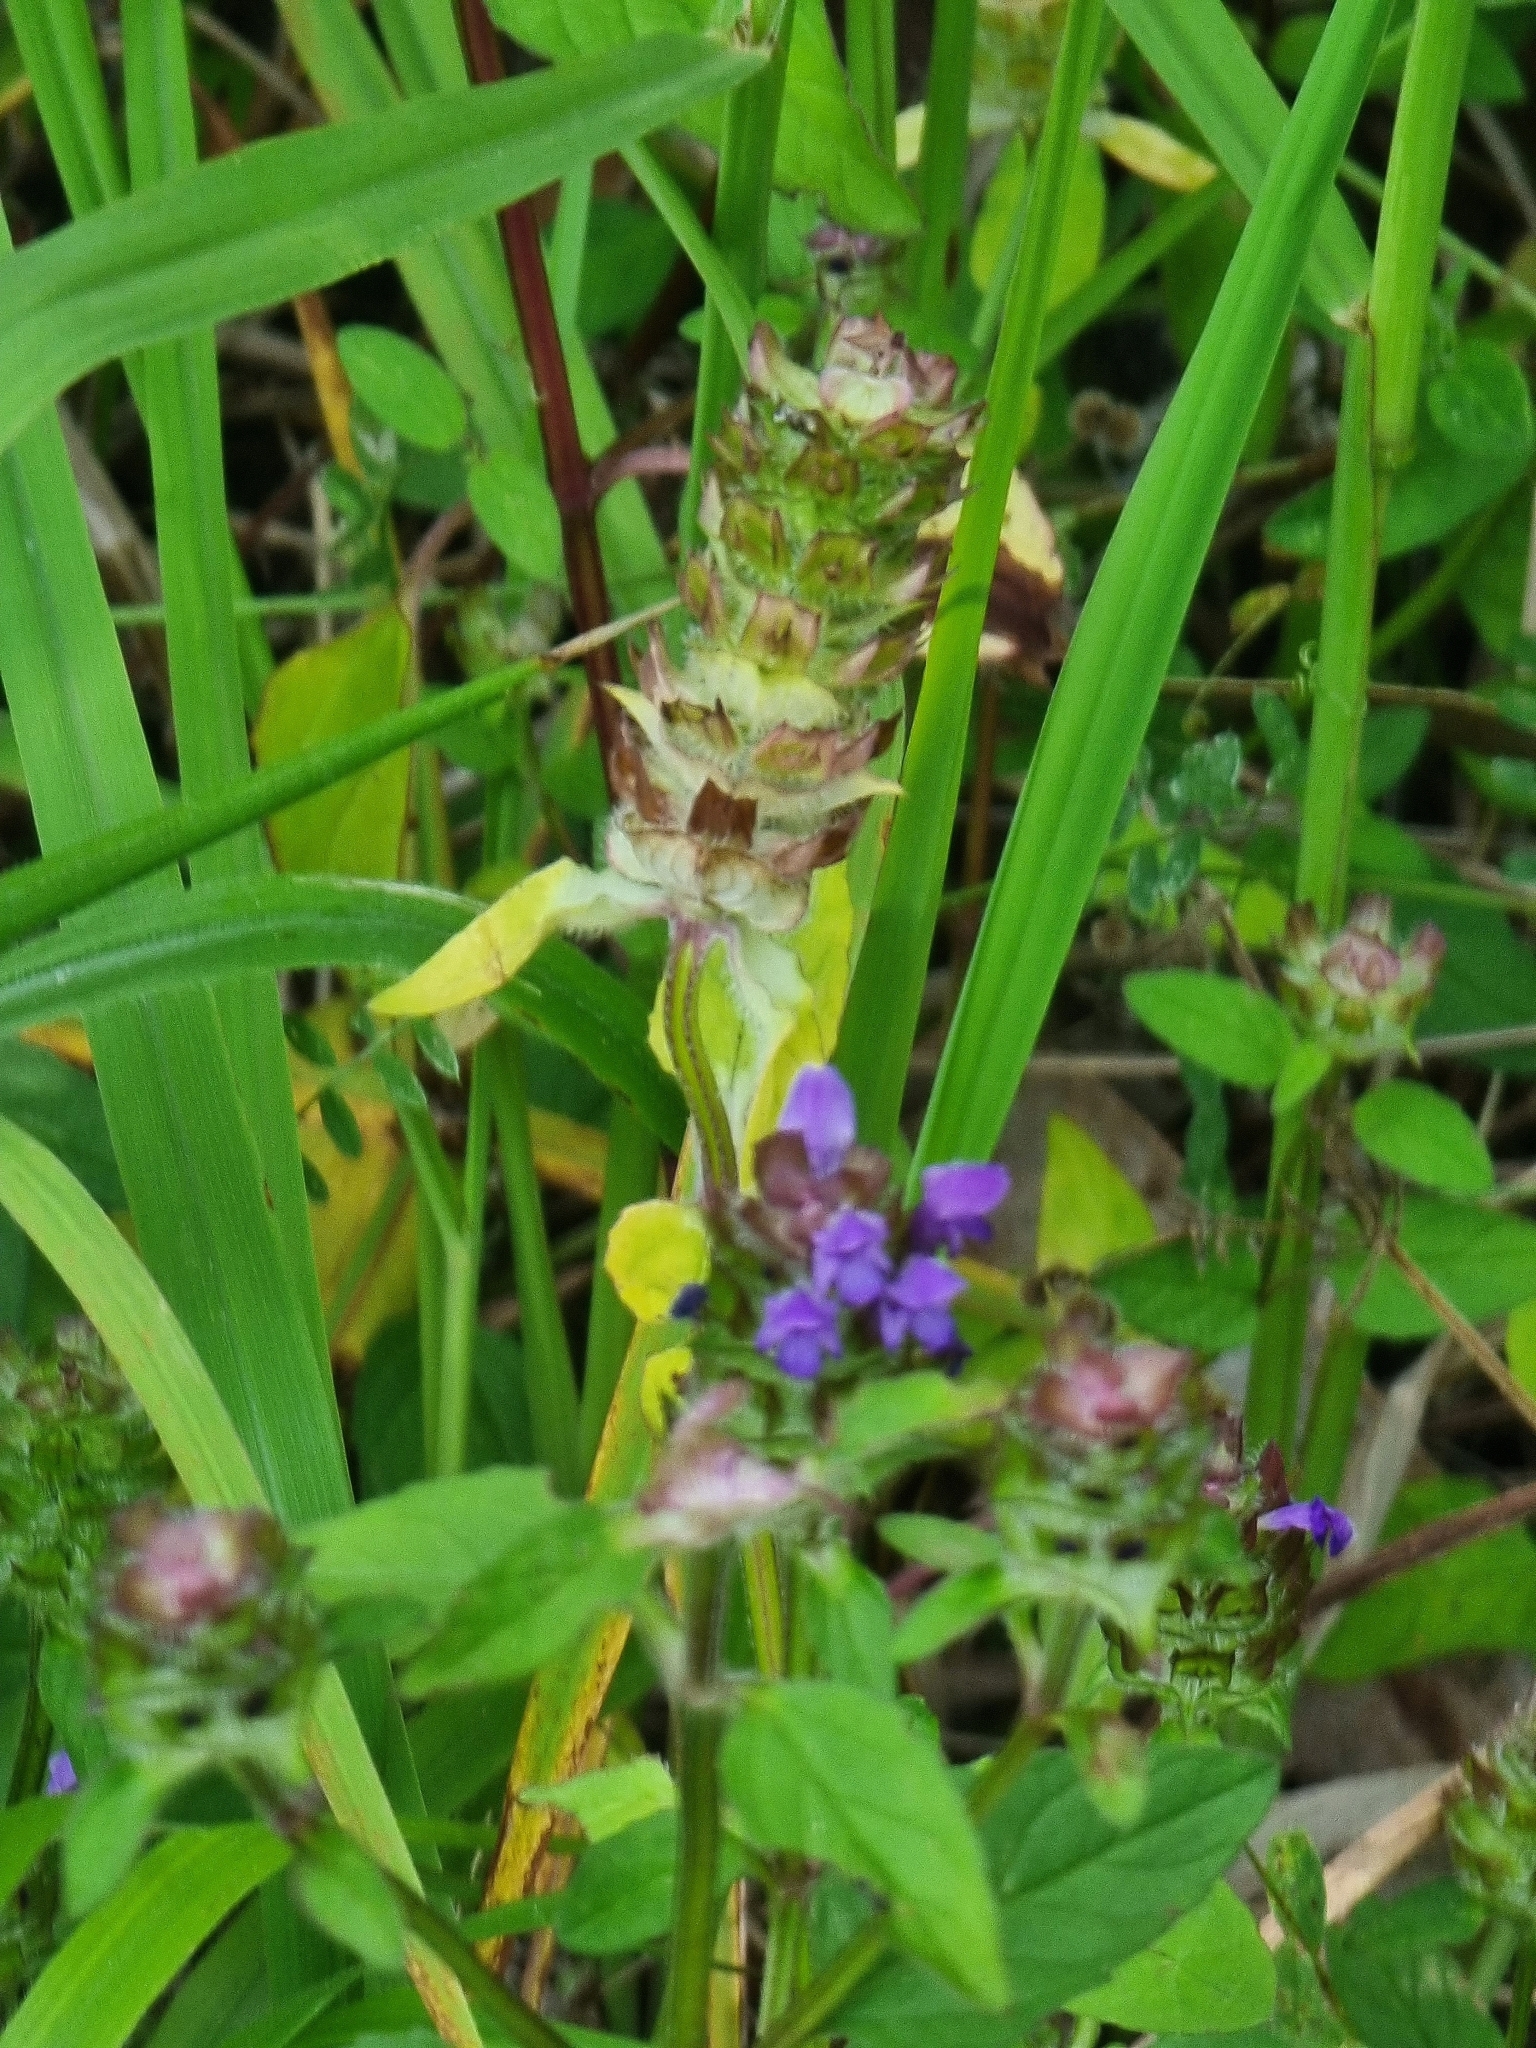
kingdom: Plantae
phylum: Tracheophyta
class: Magnoliopsida
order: Lamiales
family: Lamiaceae
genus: Prunella
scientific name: Prunella vulgaris
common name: Heal-all
